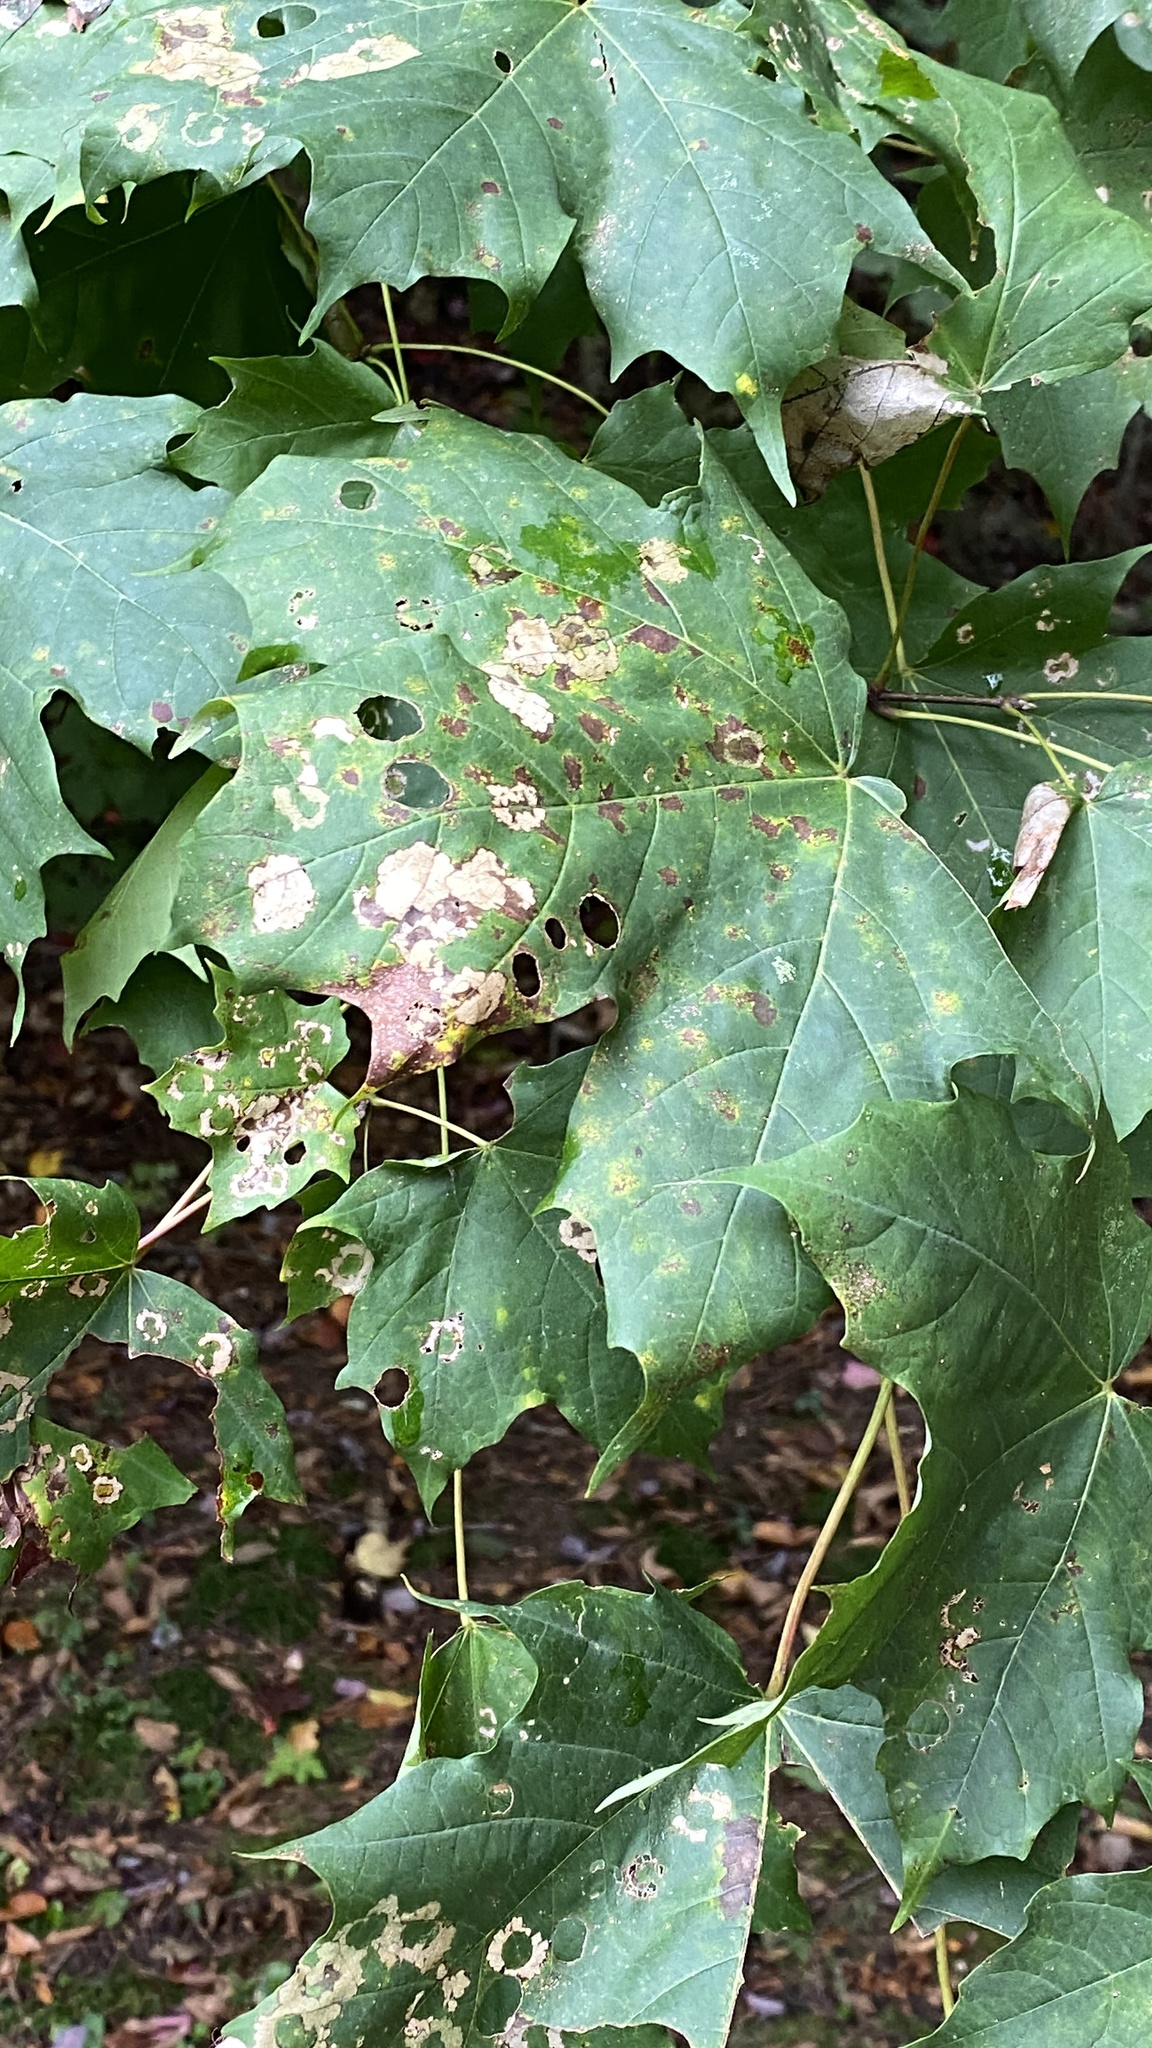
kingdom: Animalia
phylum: Arthropoda
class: Insecta
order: Lepidoptera
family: Incurvariidae
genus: Paraclemensia
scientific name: Paraclemensia acerifoliella
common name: Maple leafcutter
